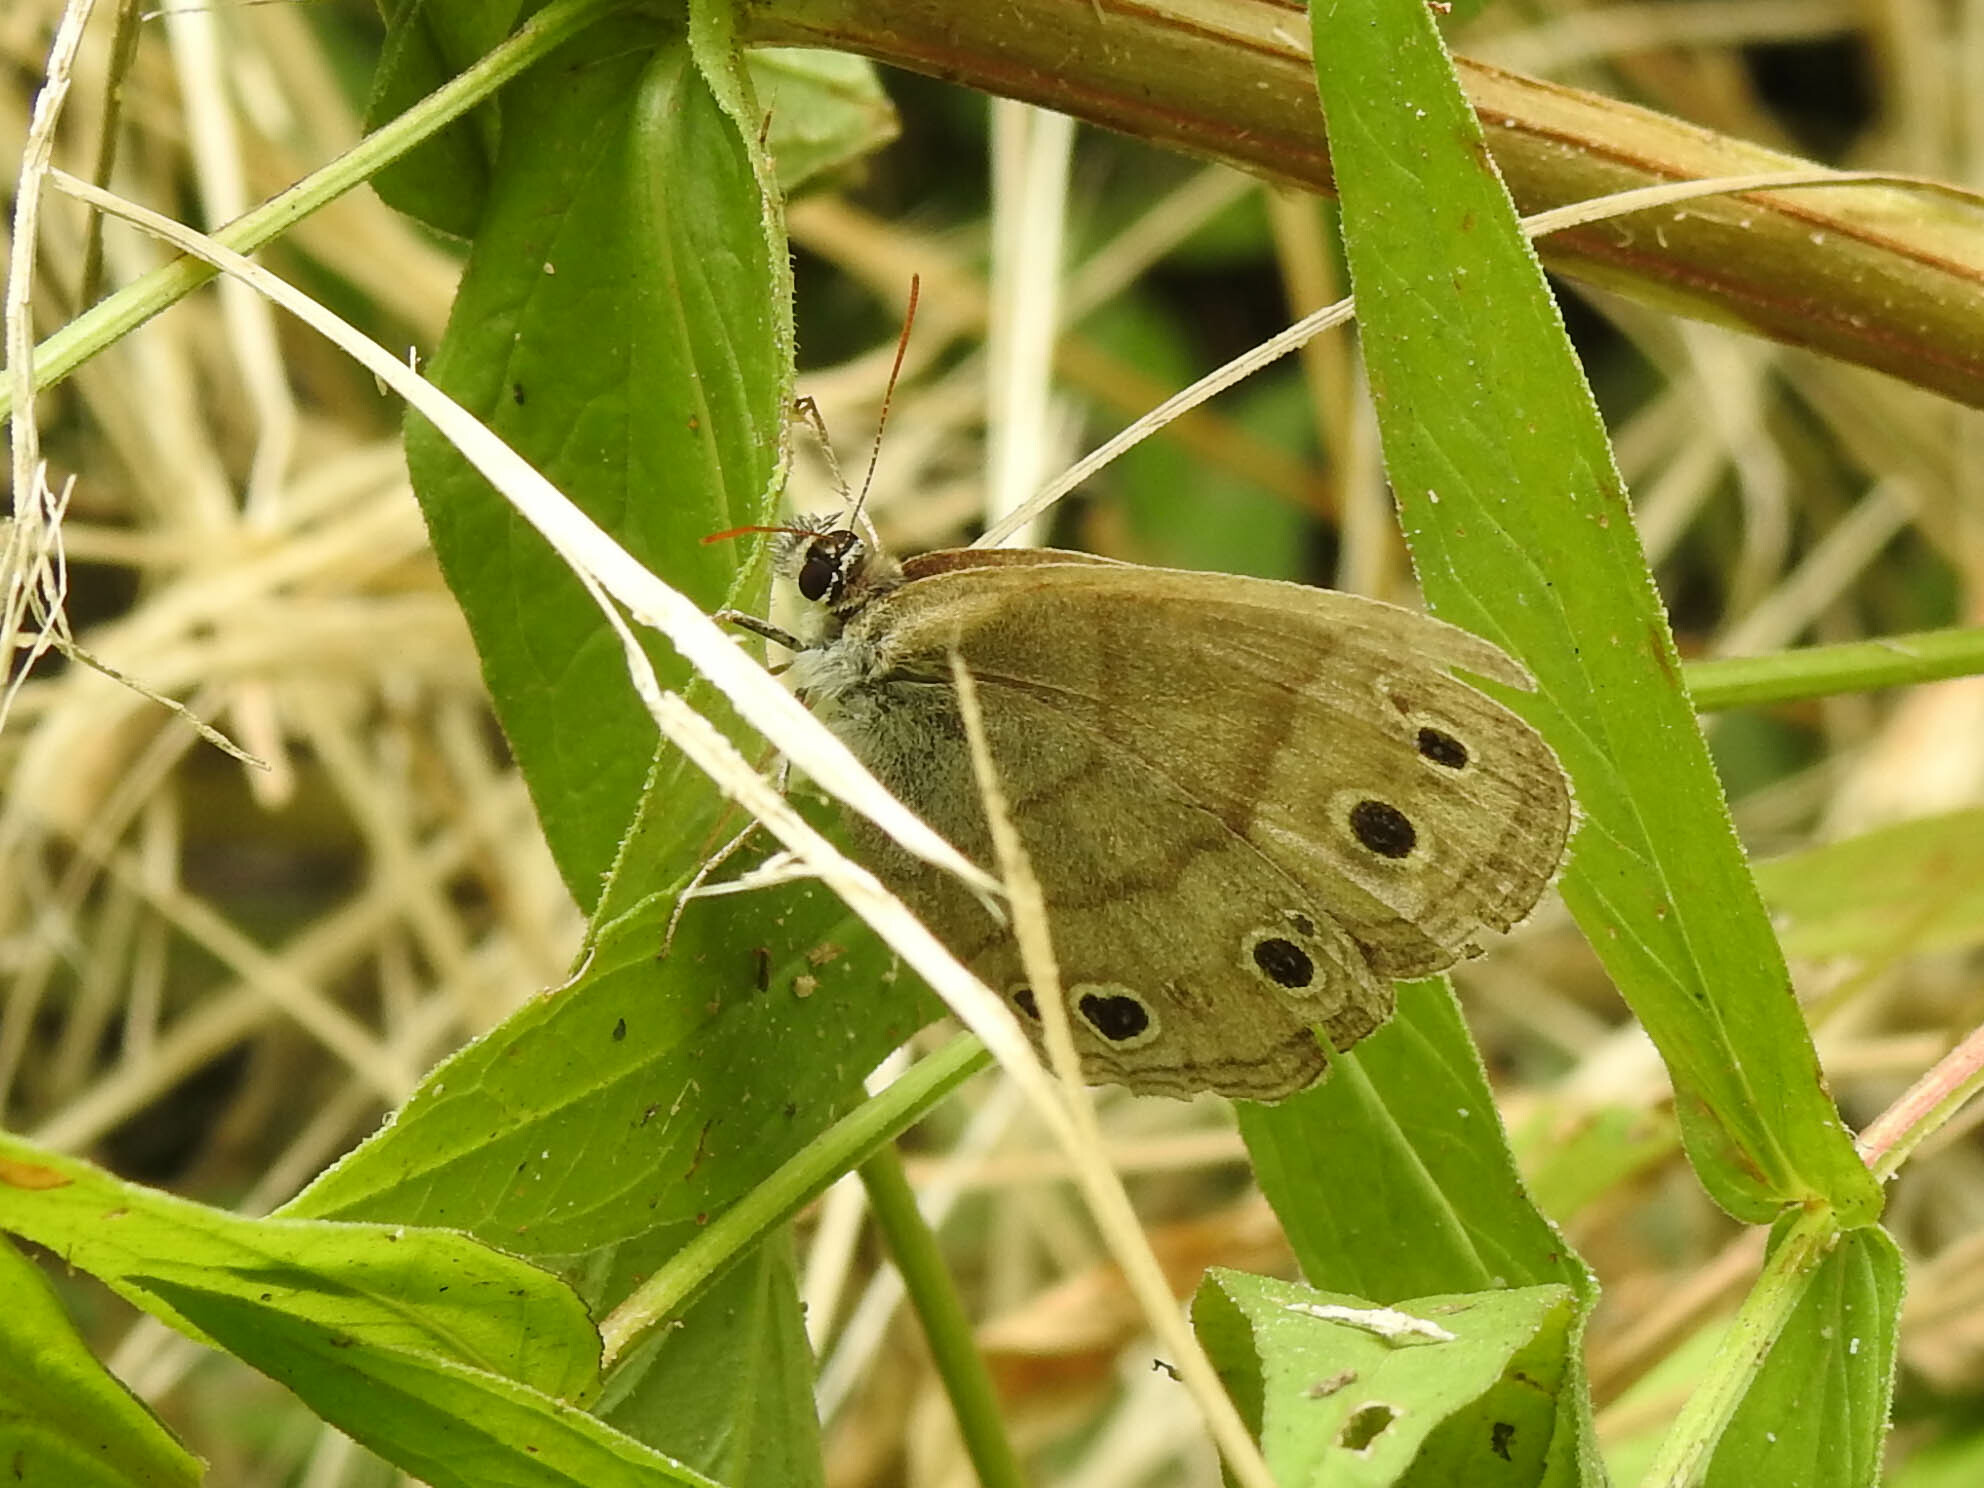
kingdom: Animalia
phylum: Arthropoda
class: Insecta
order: Lepidoptera
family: Nymphalidae
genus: Euptychia
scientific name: Euptychia cymela
